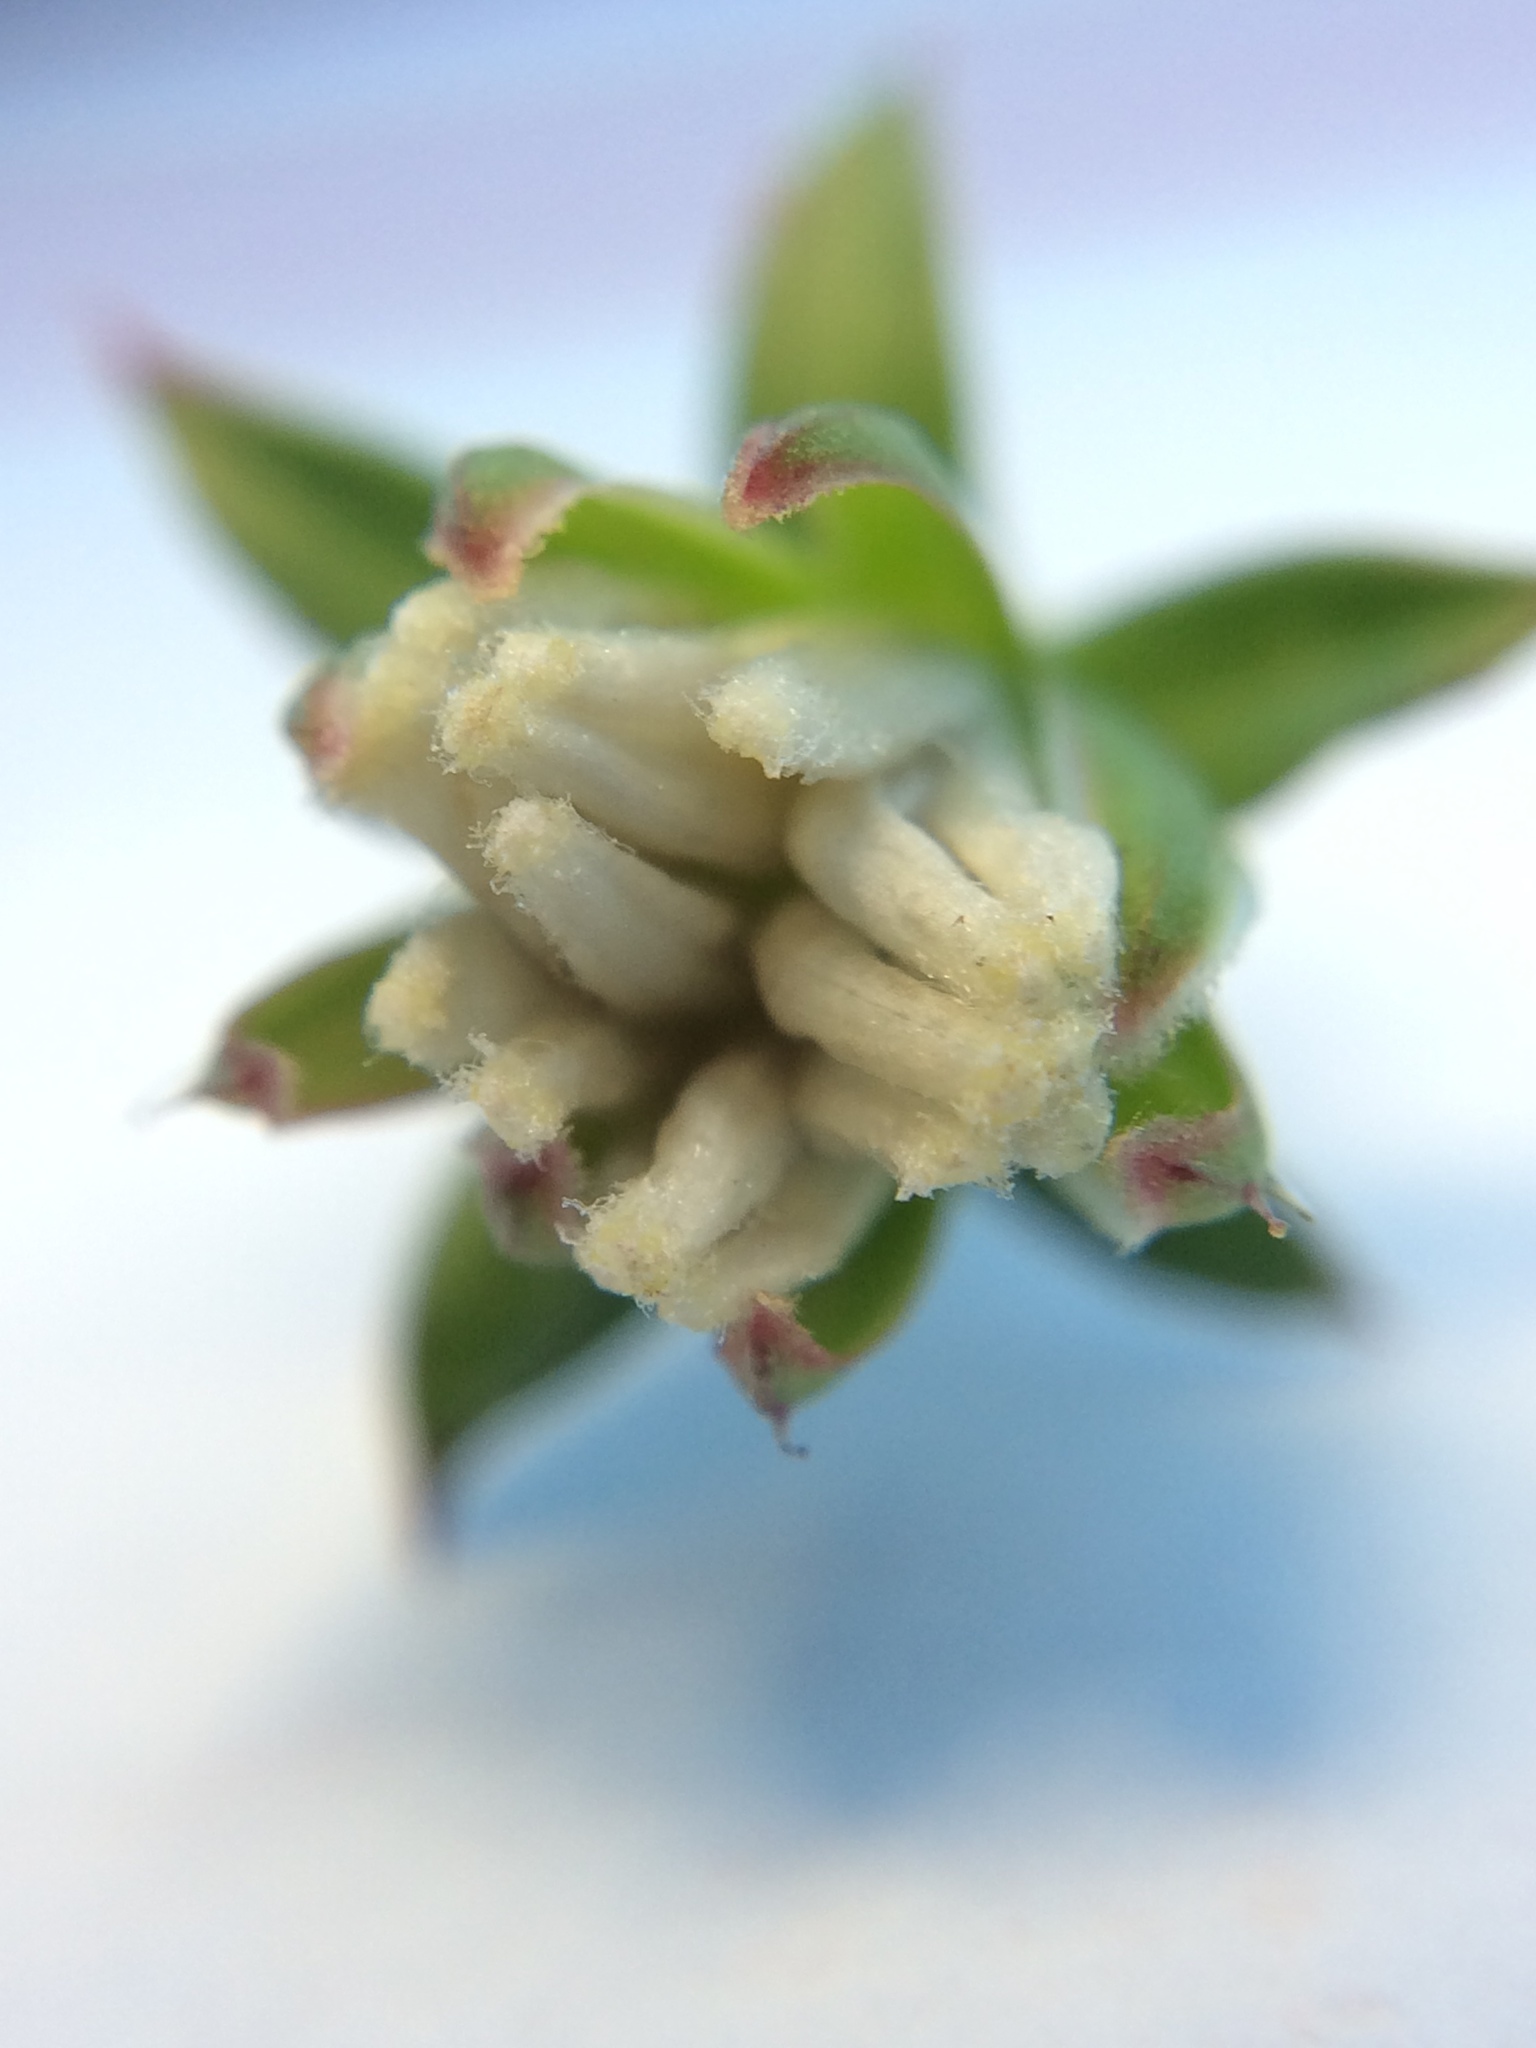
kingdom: Plantae
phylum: Tracheophyta
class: Magnoliopsida
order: Asterales
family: Asteraceae
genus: Cichorium
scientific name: Cichorium intybus
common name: Chicory
